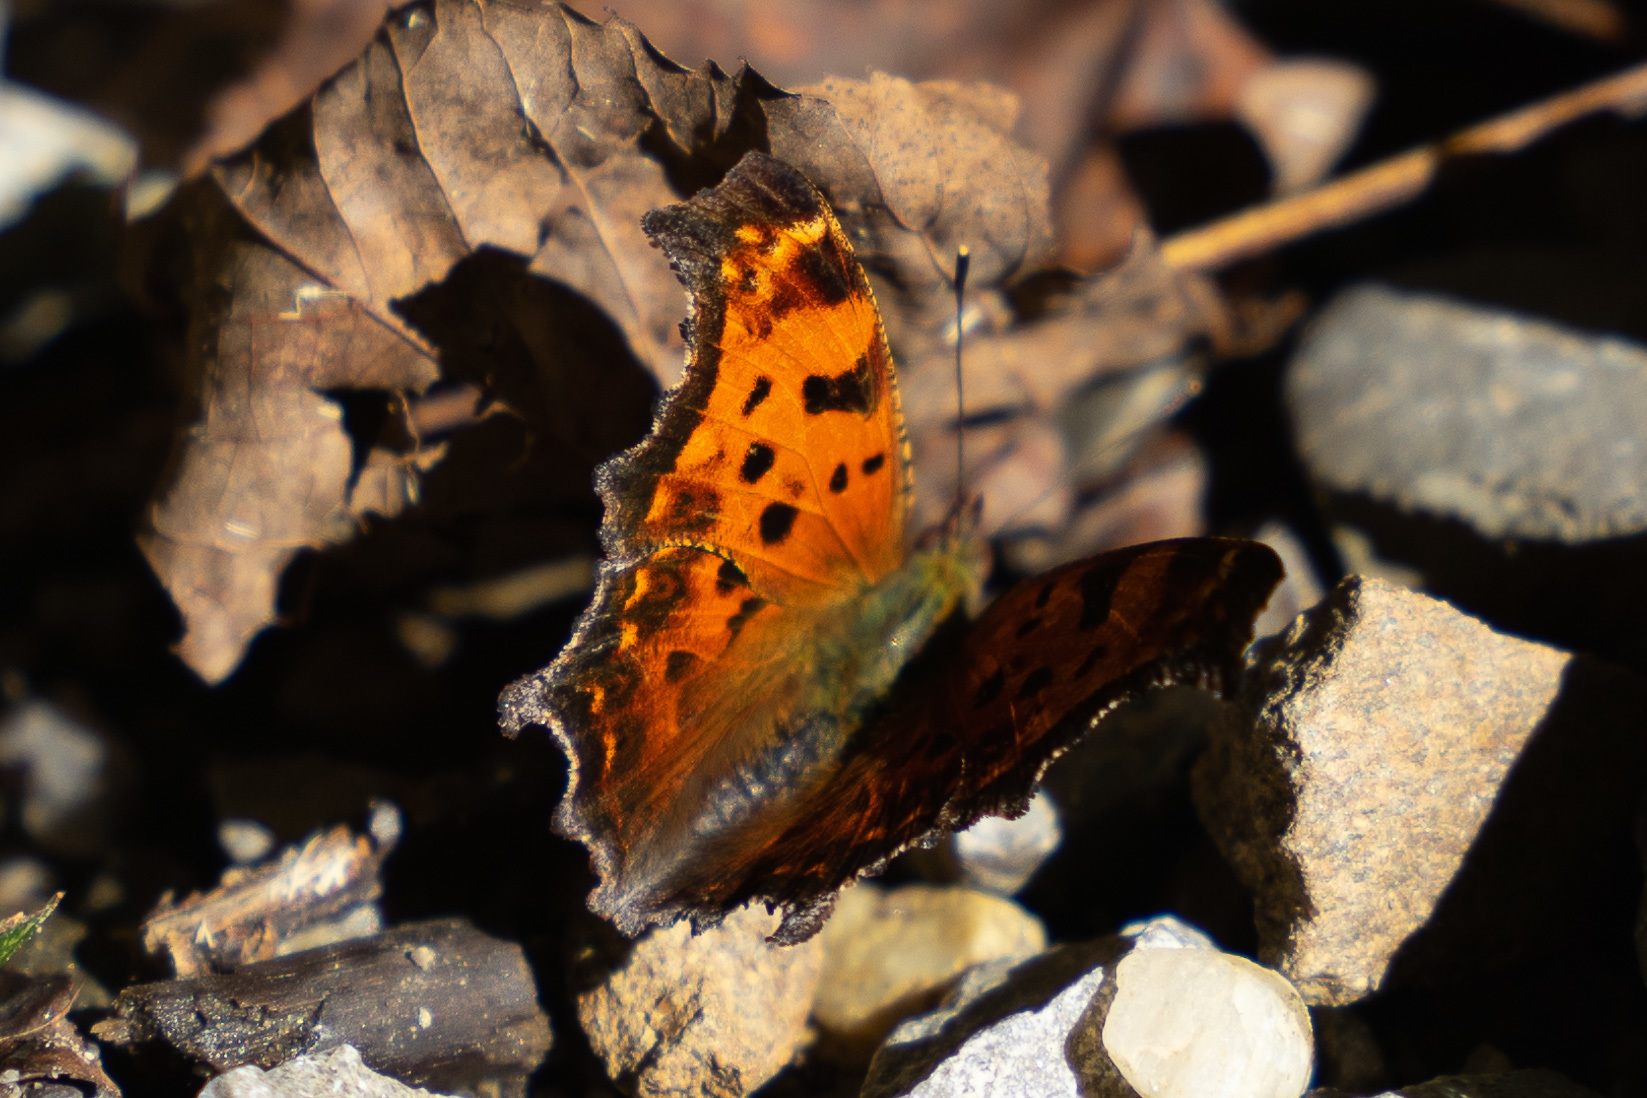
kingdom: Animalia
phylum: Arthropoda
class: Insecta
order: Lepidoptera
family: Nymphalidae
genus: Polygonia
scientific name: Polygonia comma
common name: Eastern comma
